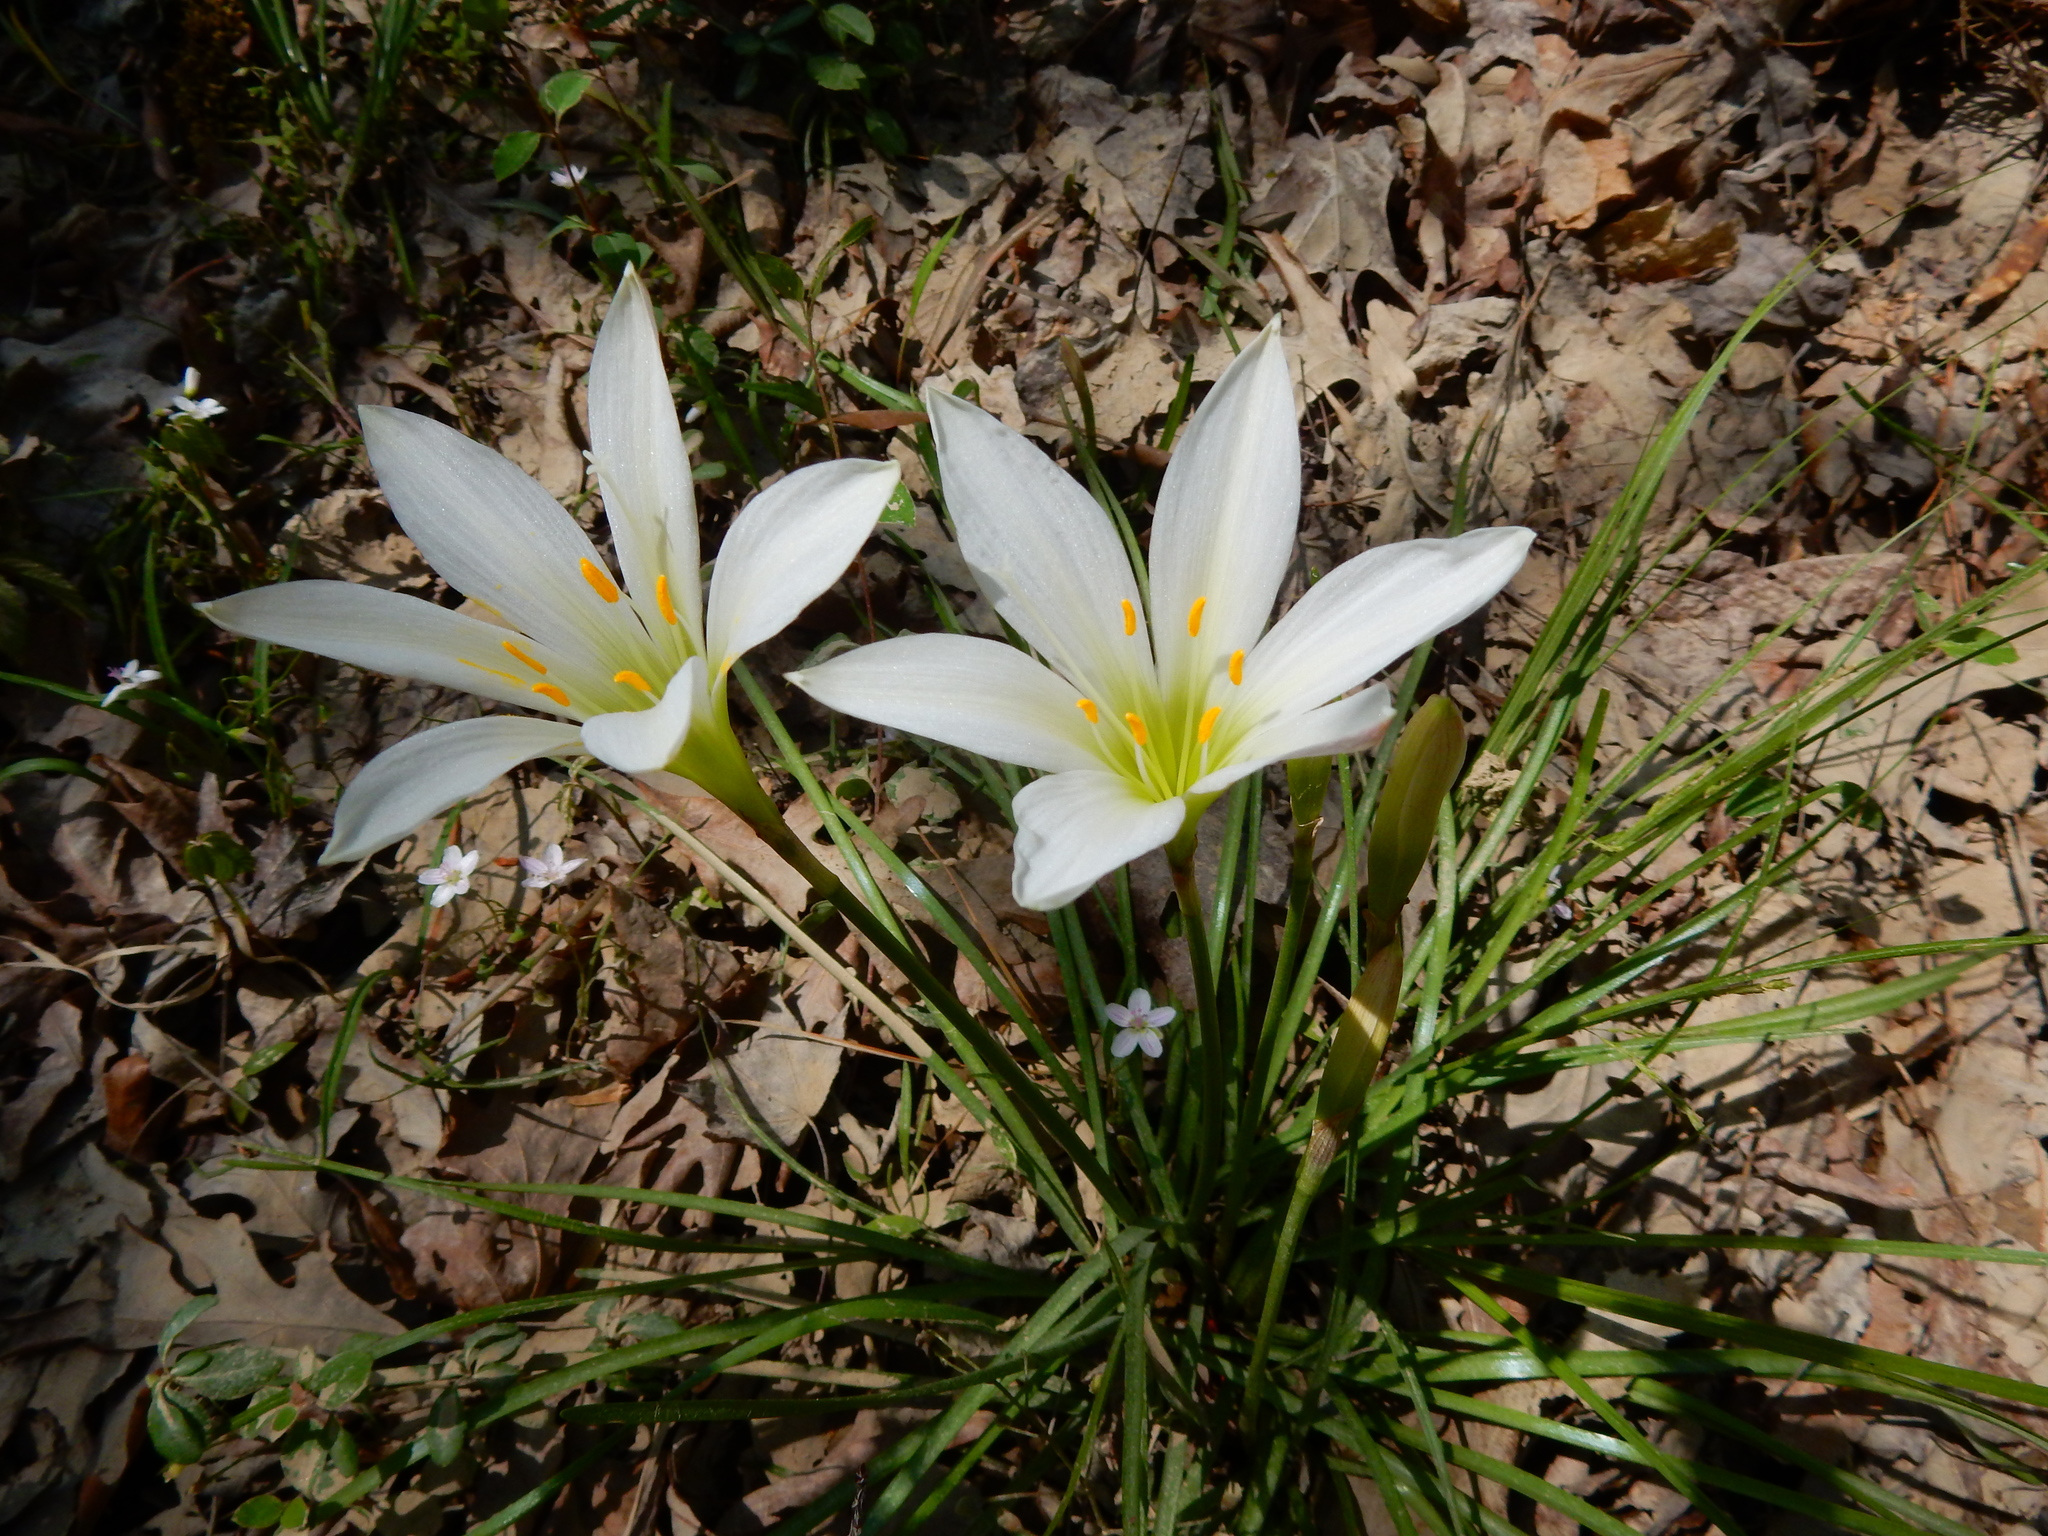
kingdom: Plantae
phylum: Tracheophyta
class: Liliopsida
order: Asparagales
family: Amaryllidaceae
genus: Zephyranthes
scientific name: Zephyranthes atamasco
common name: Atamasco lily
